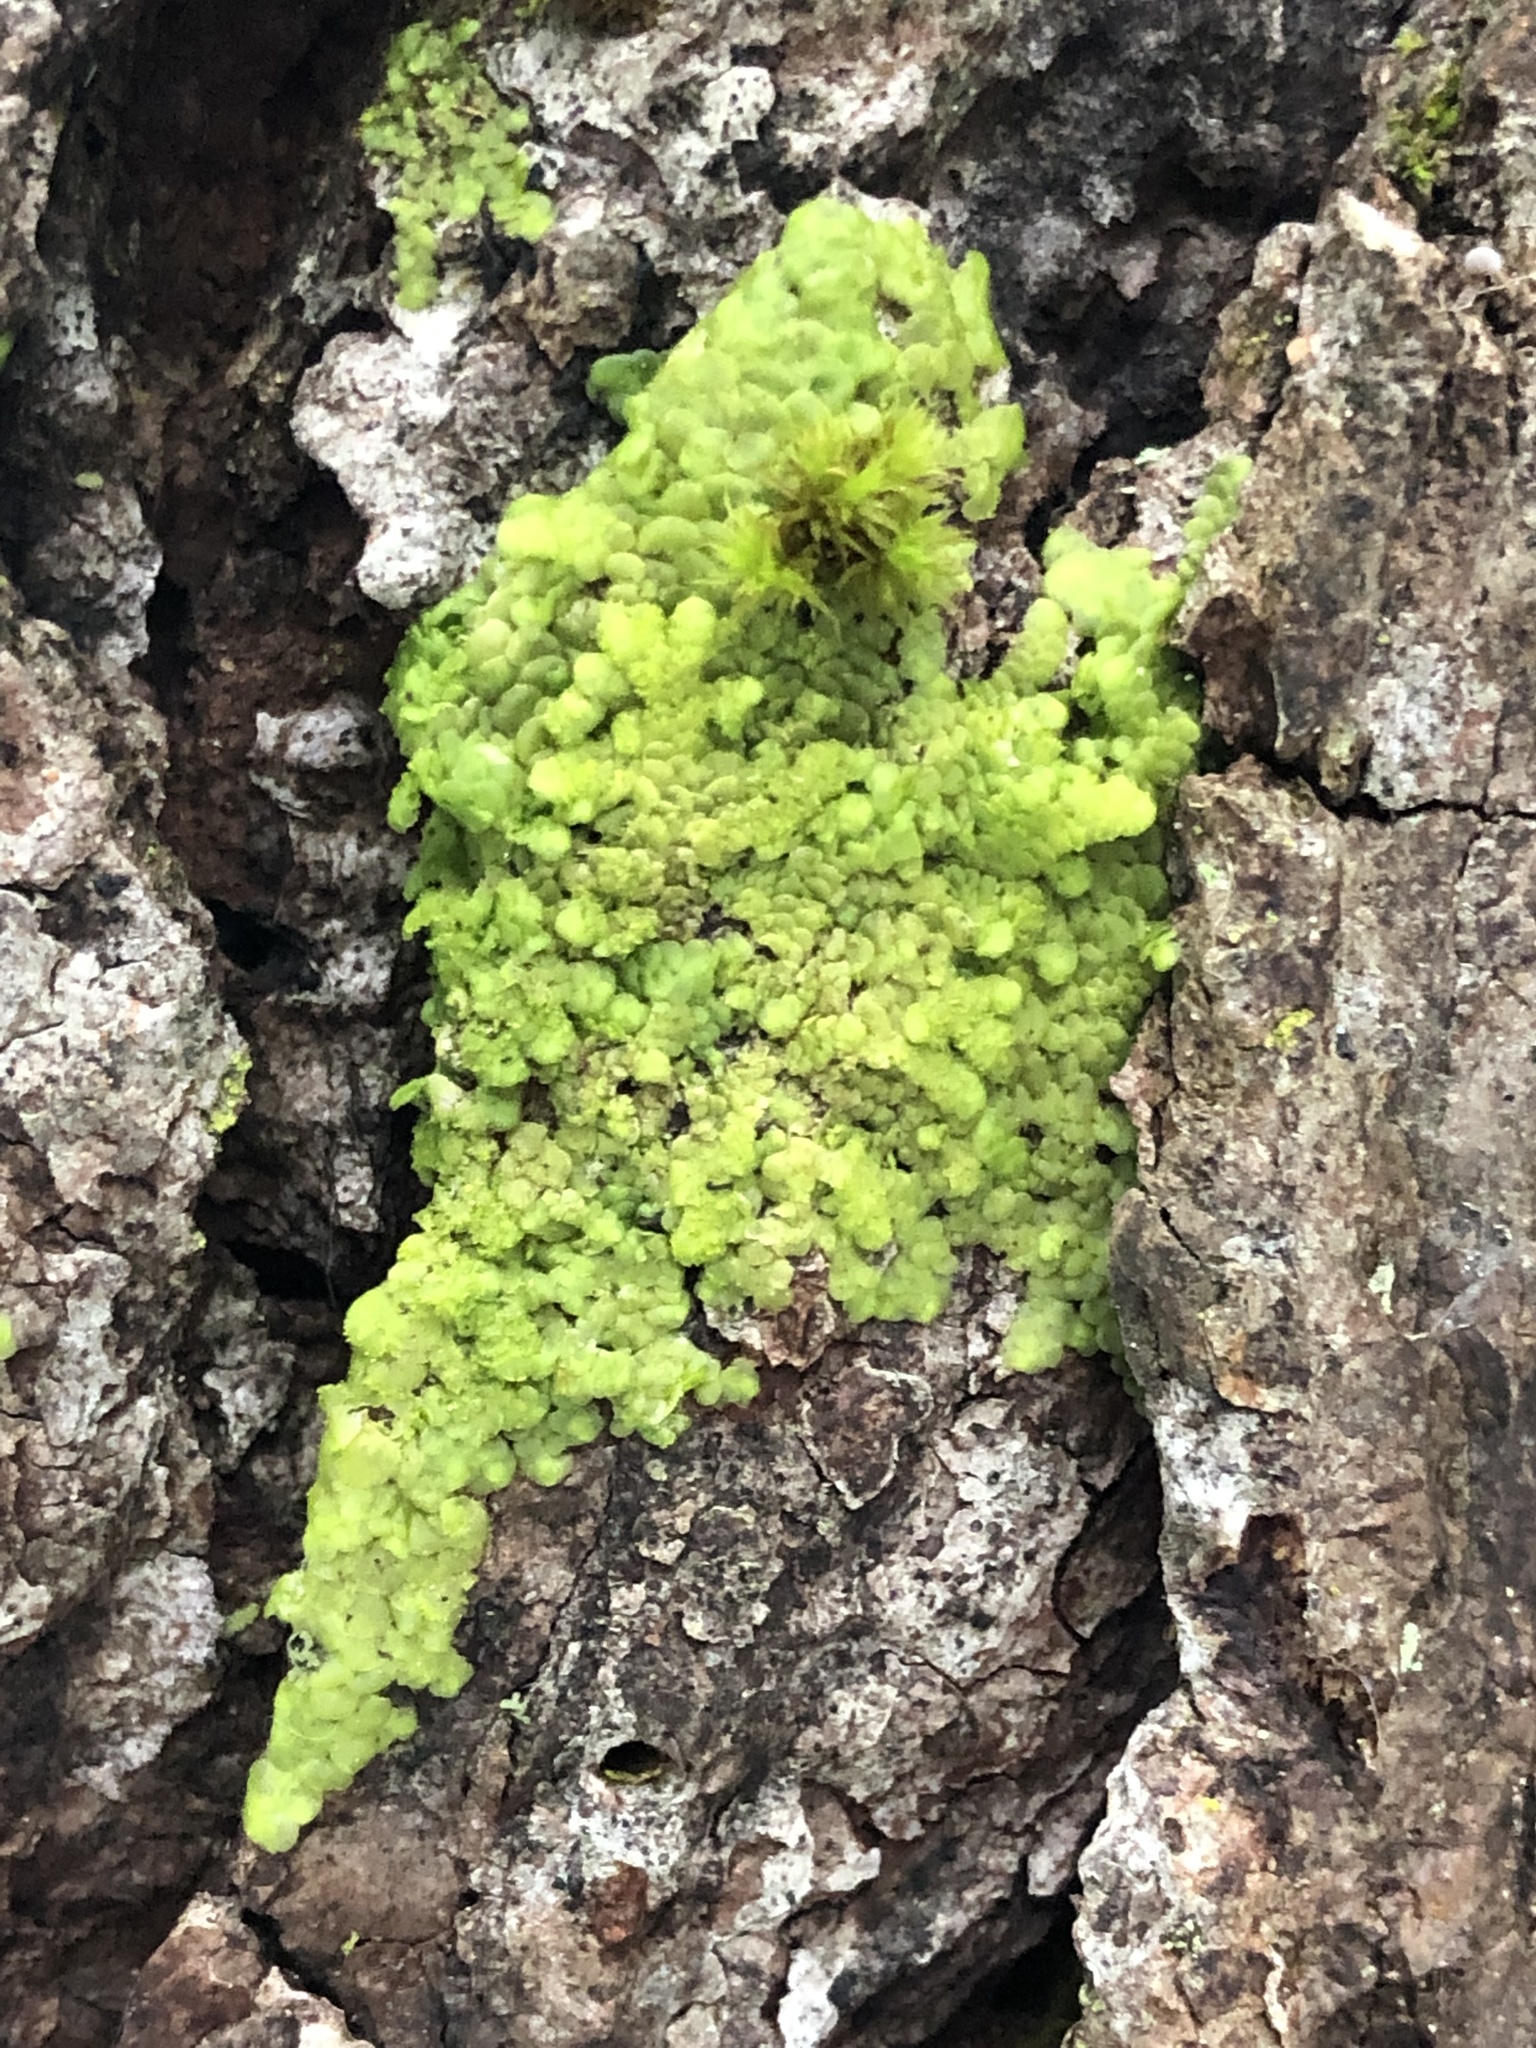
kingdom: Plantae
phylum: Marchantiophyta
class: Jungermanniopsida
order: Porellales
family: Radulaceae
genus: Radula
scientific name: Radula complanata
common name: Flat-leaved scalewort
